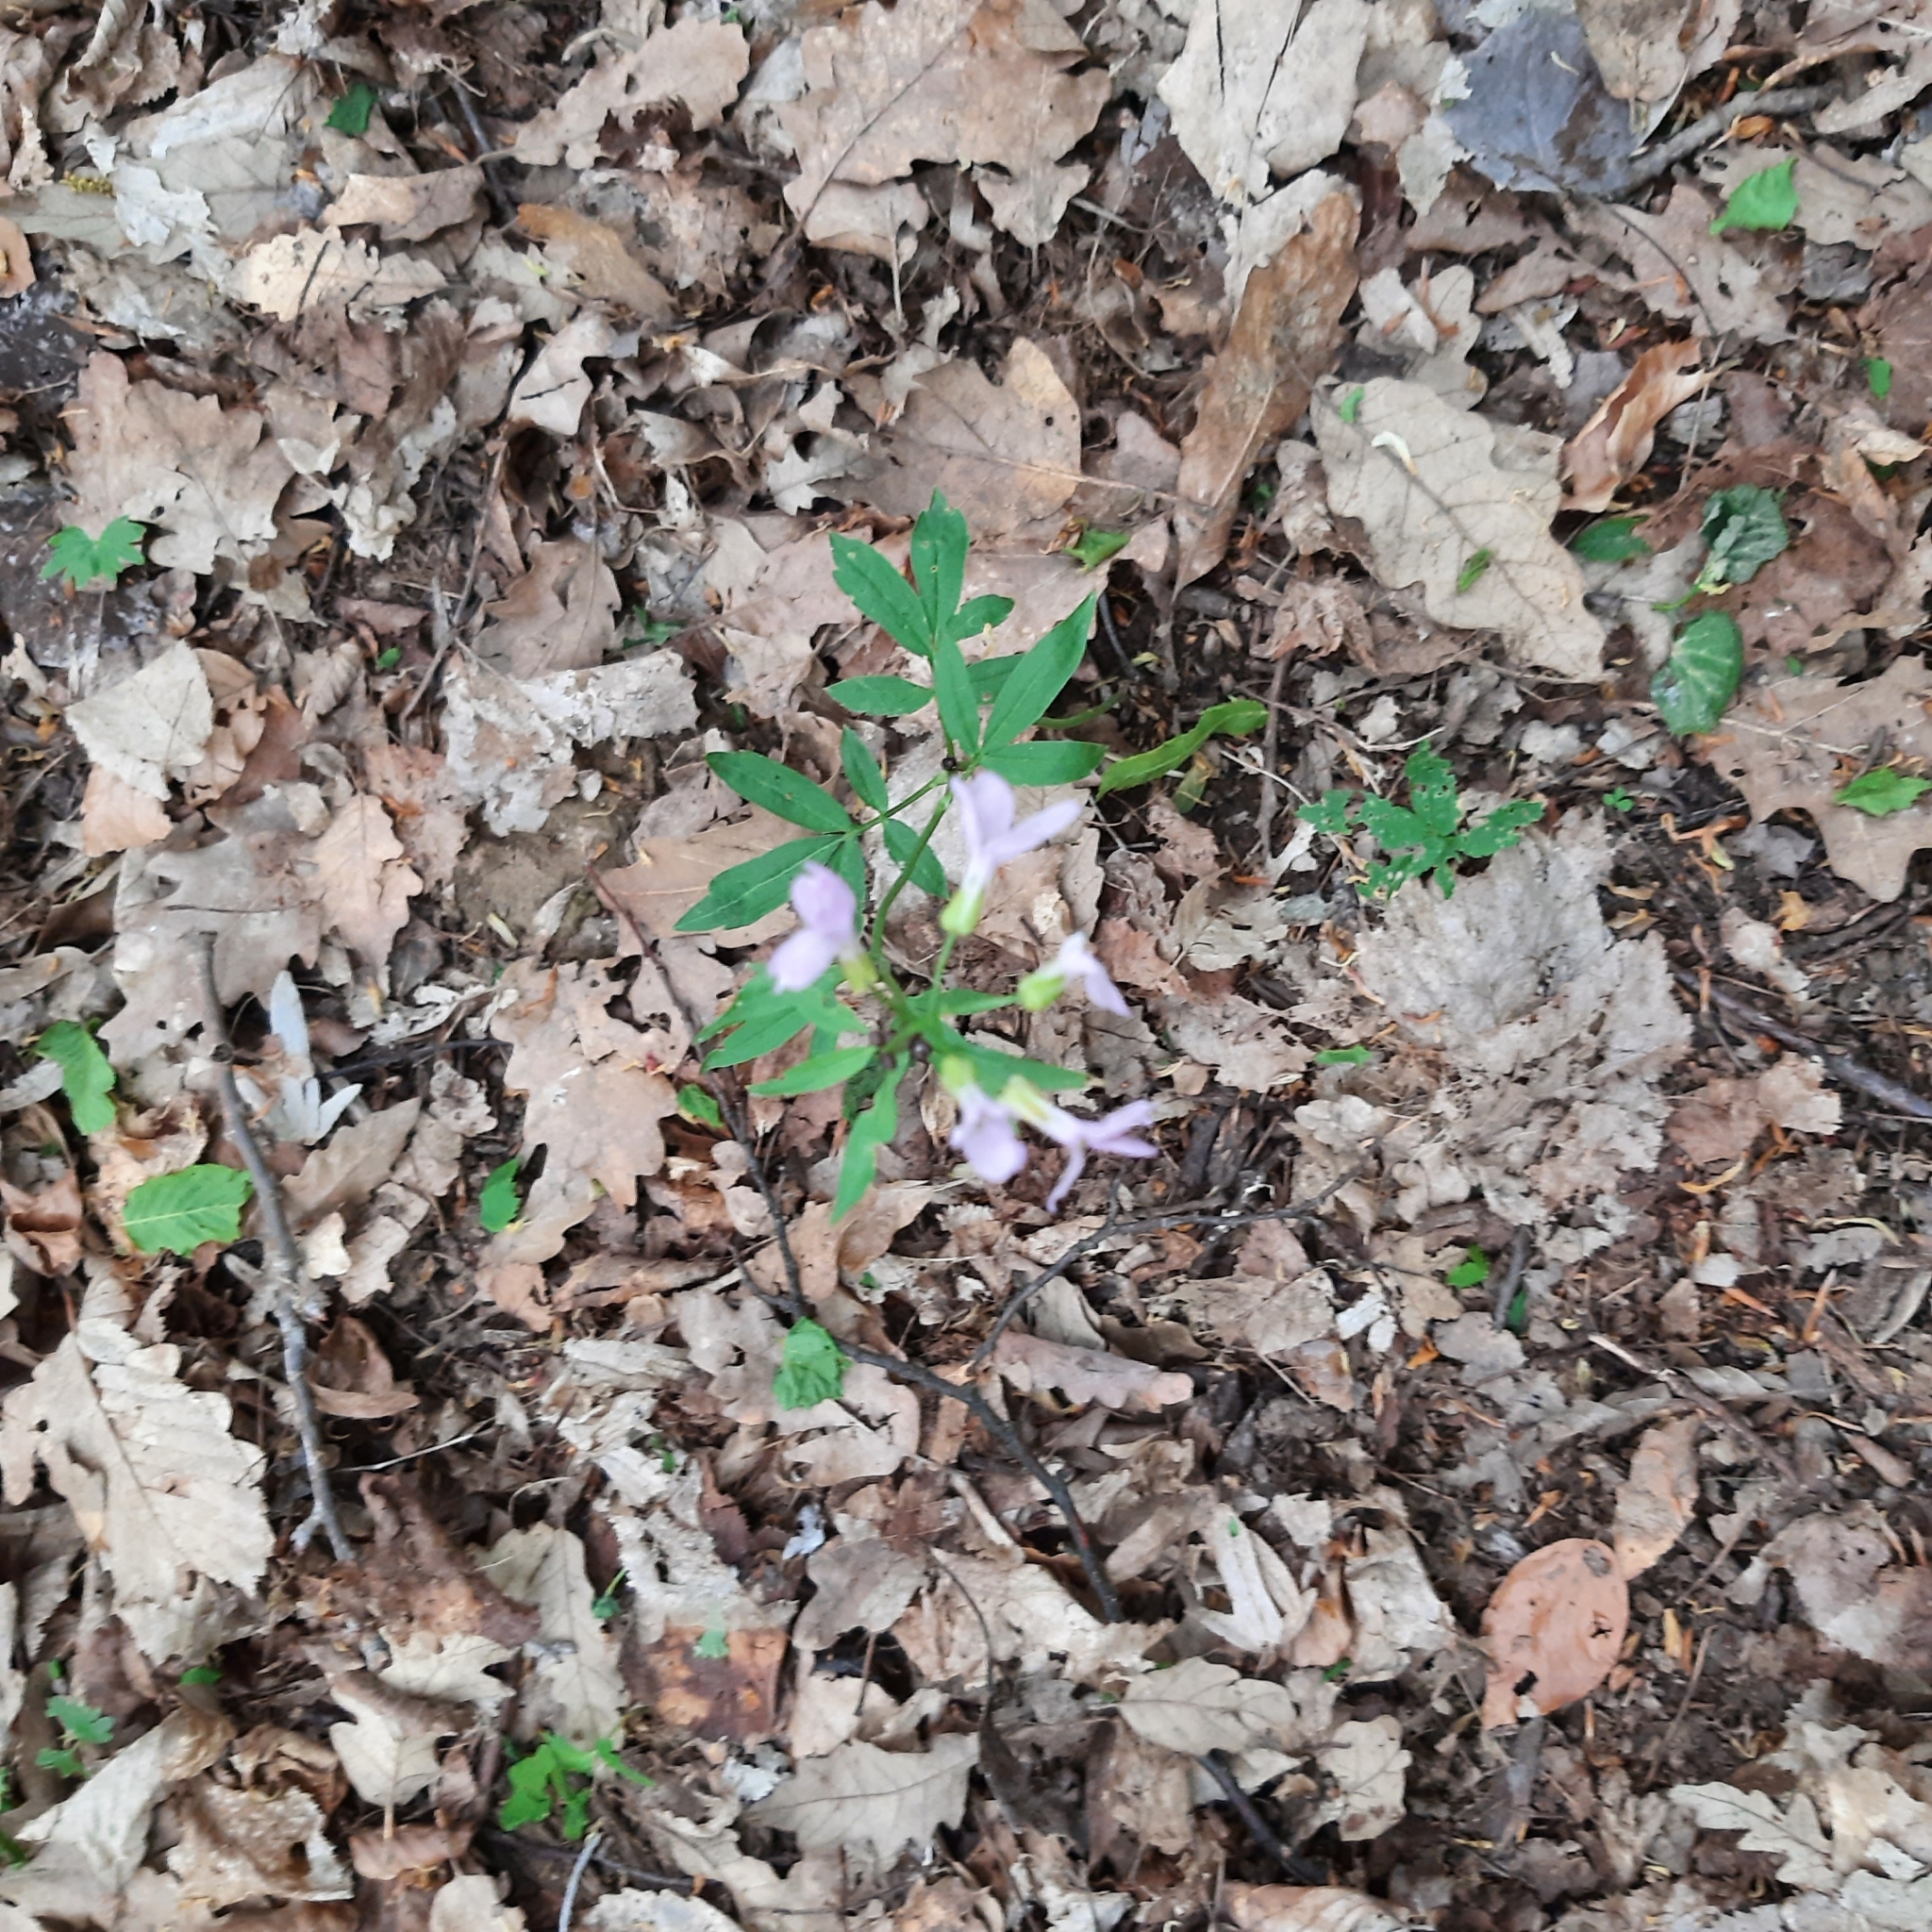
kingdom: Plantae
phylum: Tracheophyta
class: Magnoliopsida
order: Brassicales
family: Brassicaceae
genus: Cardamine
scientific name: Cardamine bulbifera
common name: Coralroot bittercress
